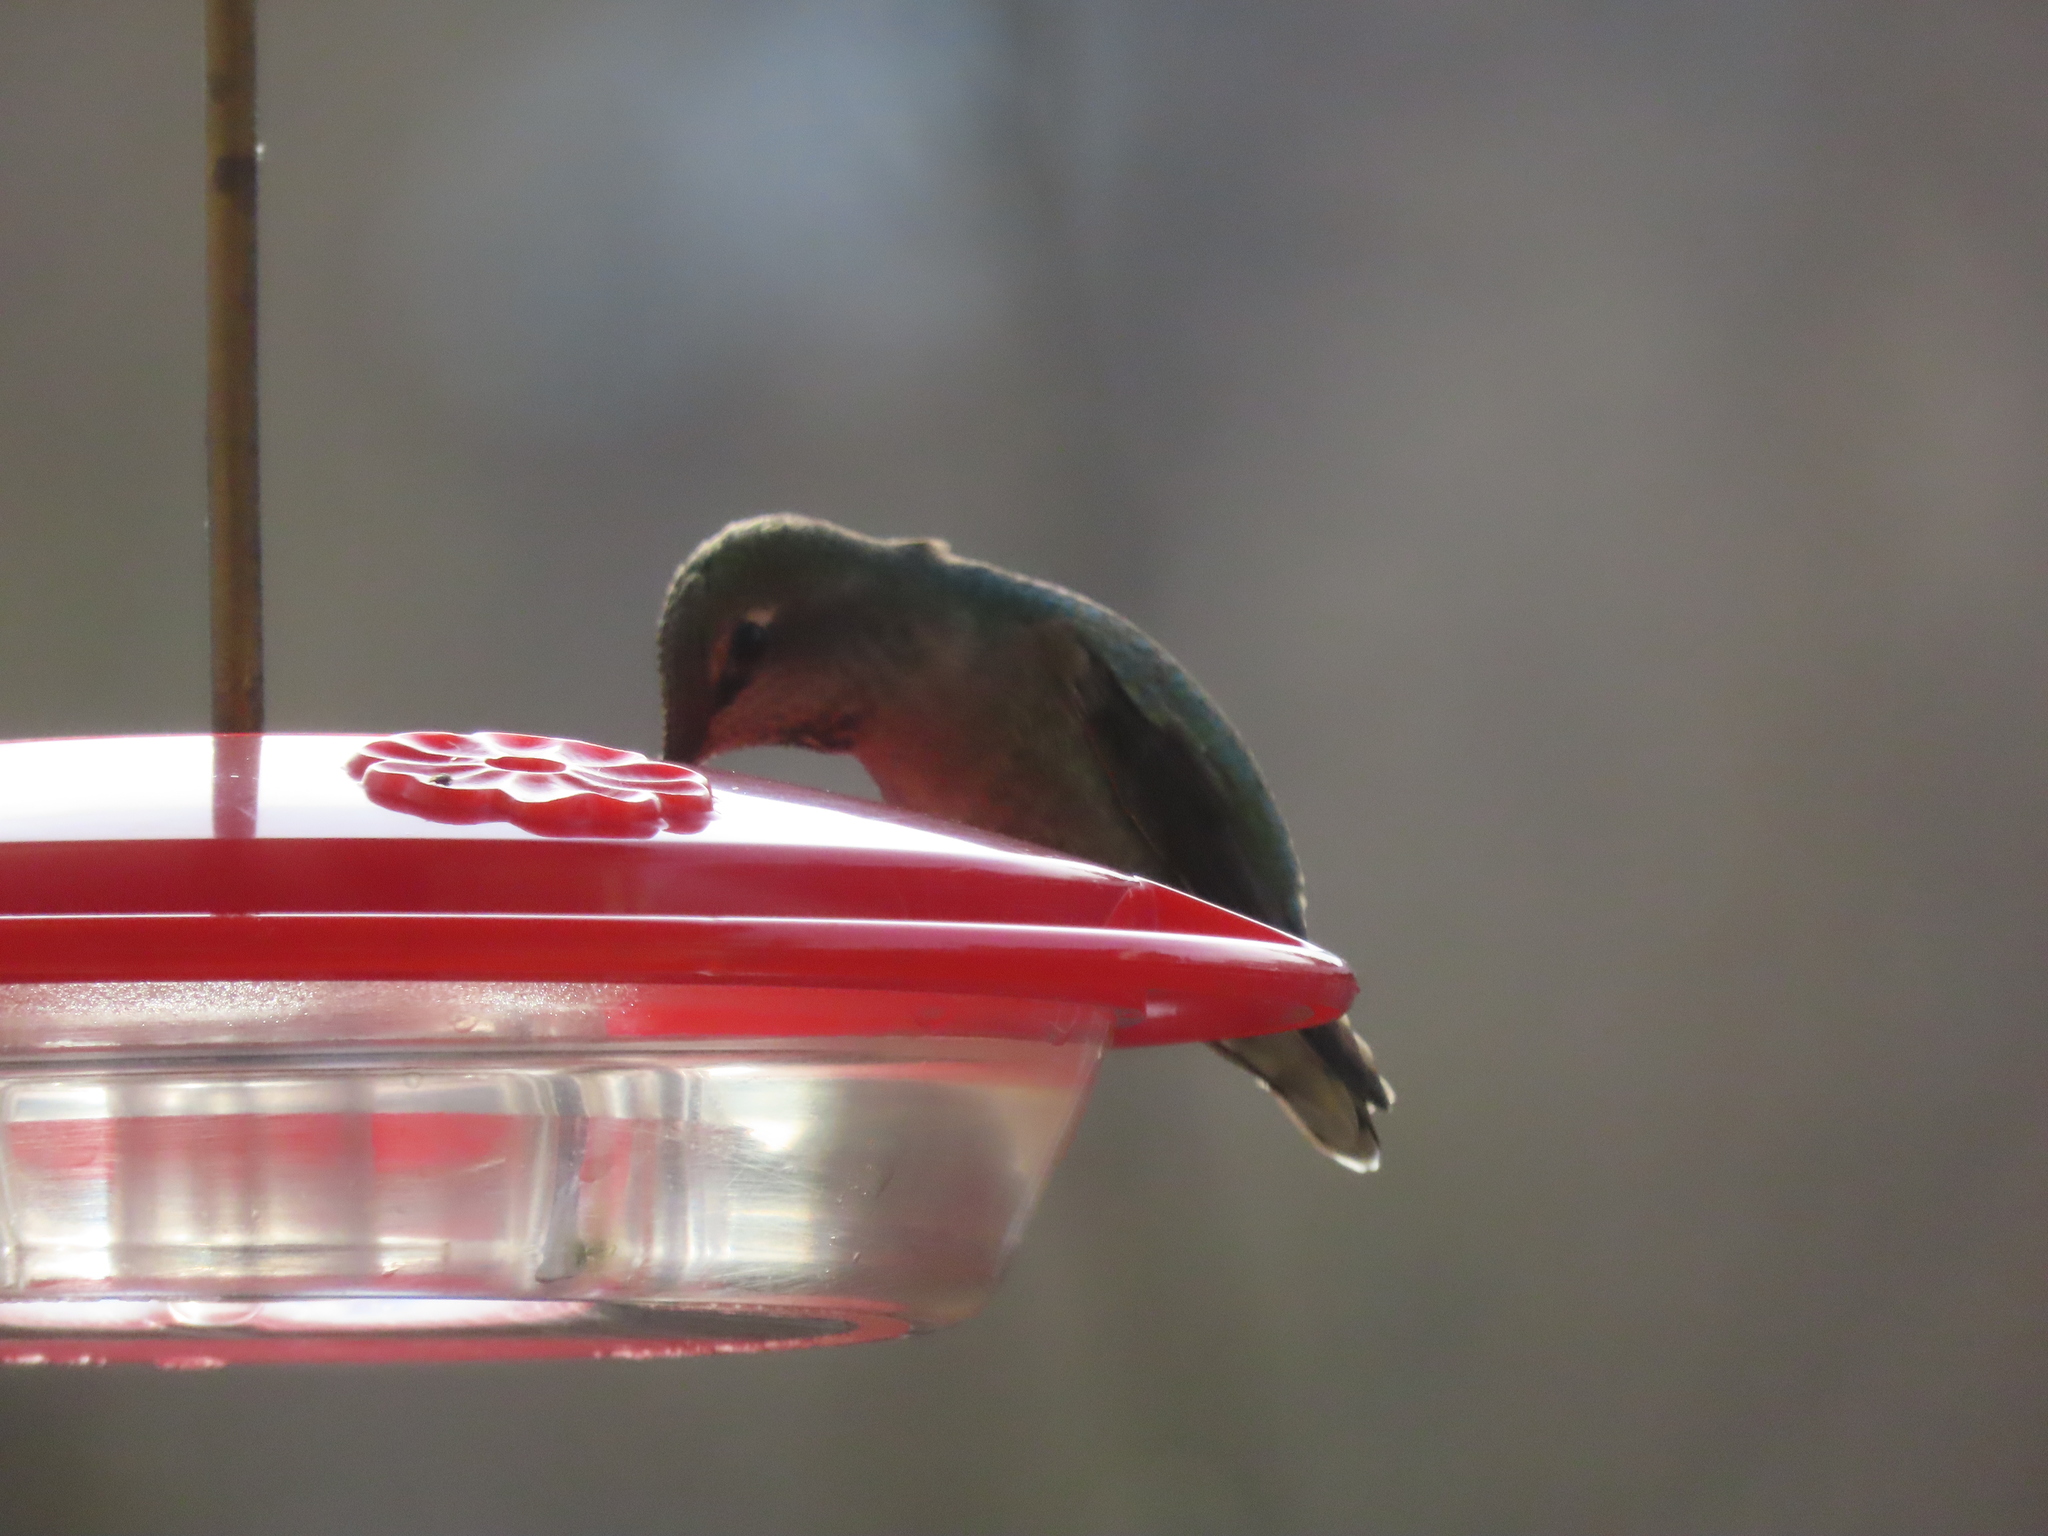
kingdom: Animalia
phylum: Chordata
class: Aves
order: Apodiformes
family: Trochilidae
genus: Calypte
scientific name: Calypte anna
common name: Anna's hummingbird
